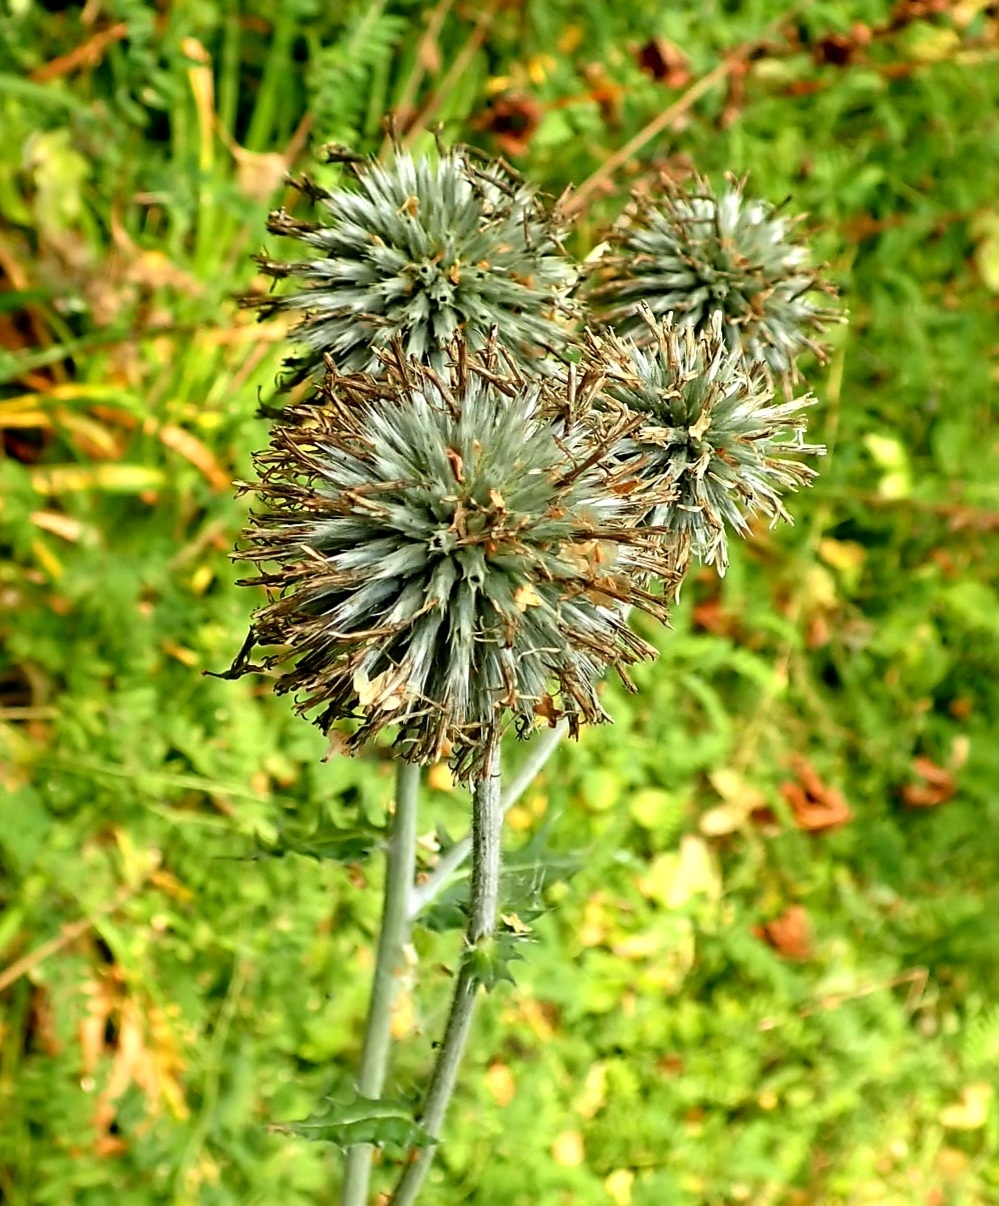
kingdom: Plantae
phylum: Tracheophyta
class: Magnoliopsida
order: Asterales
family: Asteraceae
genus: Echinops
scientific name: Echinops sphaerocephalus
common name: Glandular globe-thistle
